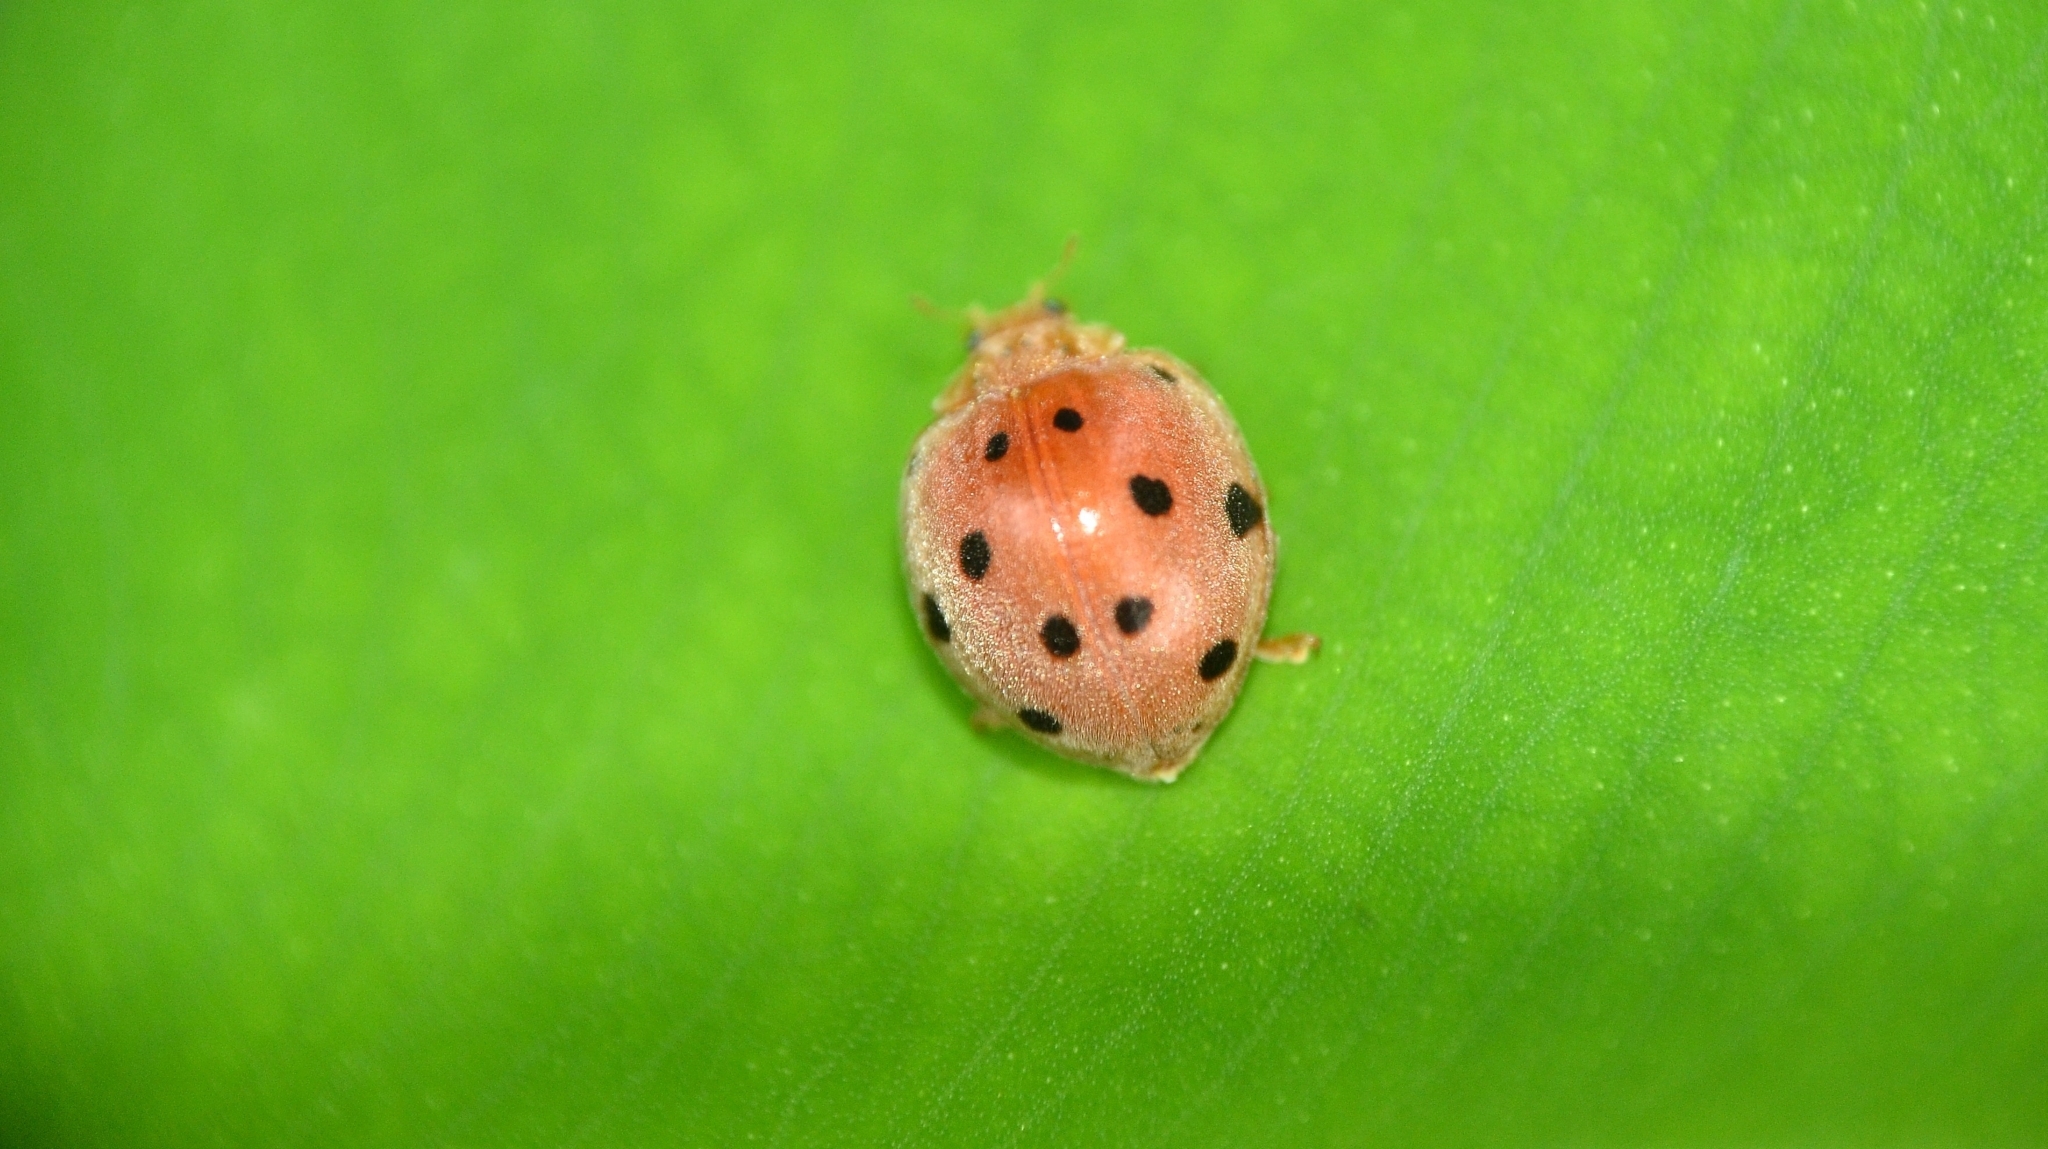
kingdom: Animalia
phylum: Arthropoda
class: Insecta
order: Coleoptera
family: Coccinellidae
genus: Henosepilachna
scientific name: Henosepilachna argus
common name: Bryony ladybird
